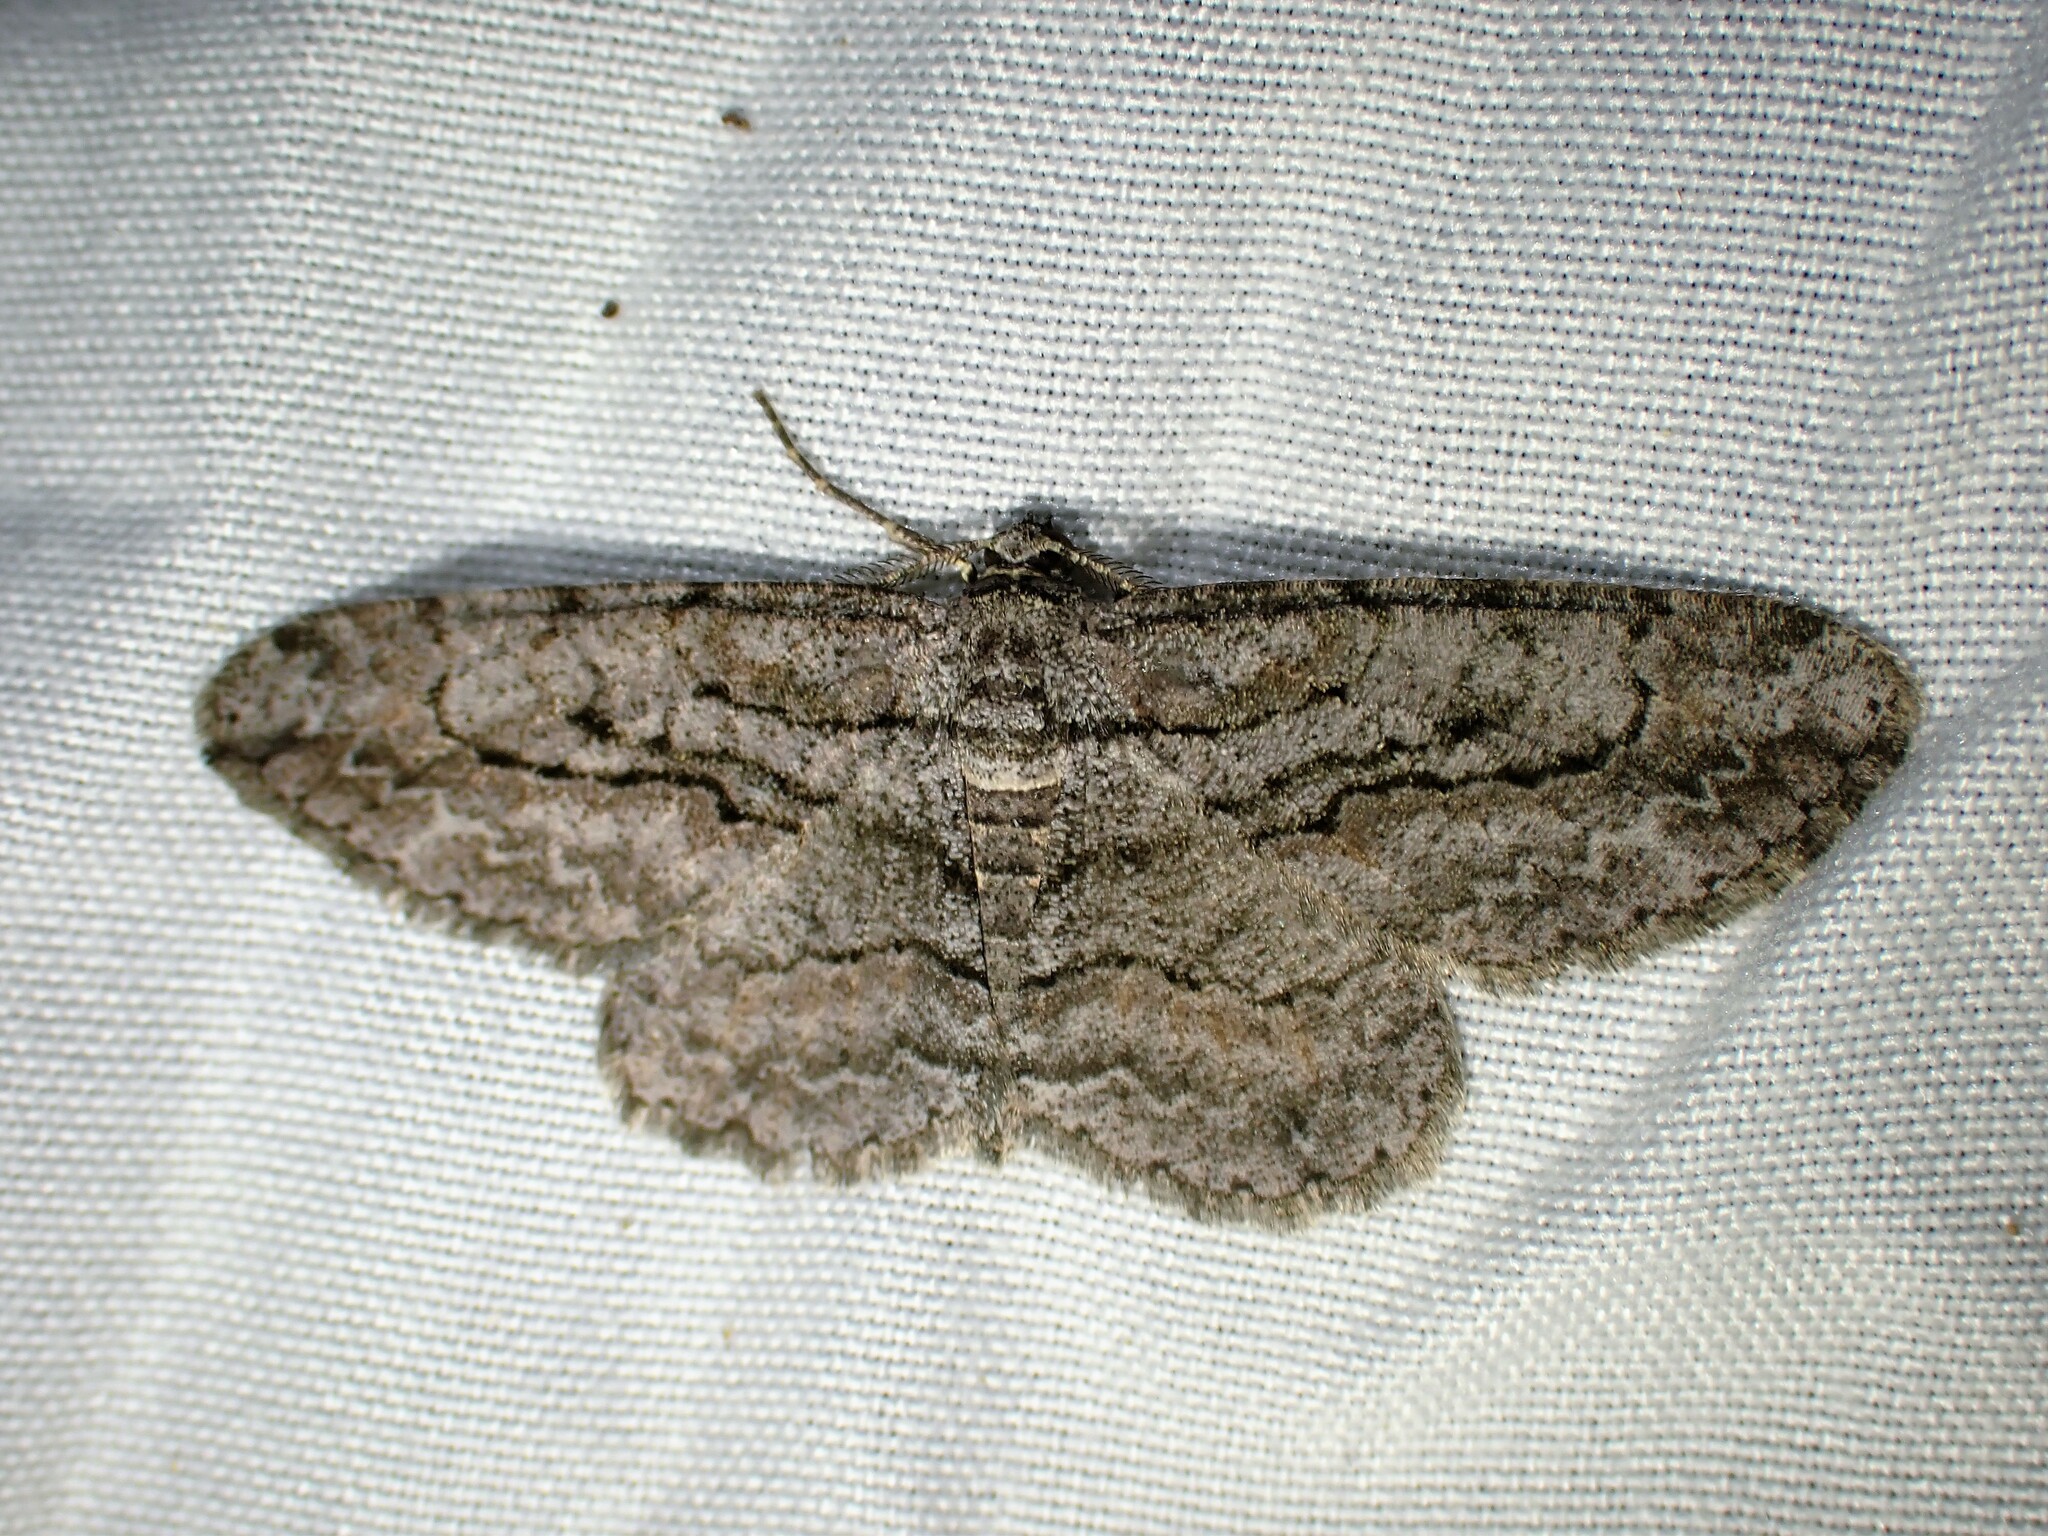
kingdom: Animalia
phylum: Arthropoda
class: Insecta
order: Lepidoptera
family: Geometridae
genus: Anavitrinella
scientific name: Anavitrinella pampinaria
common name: Common gray
